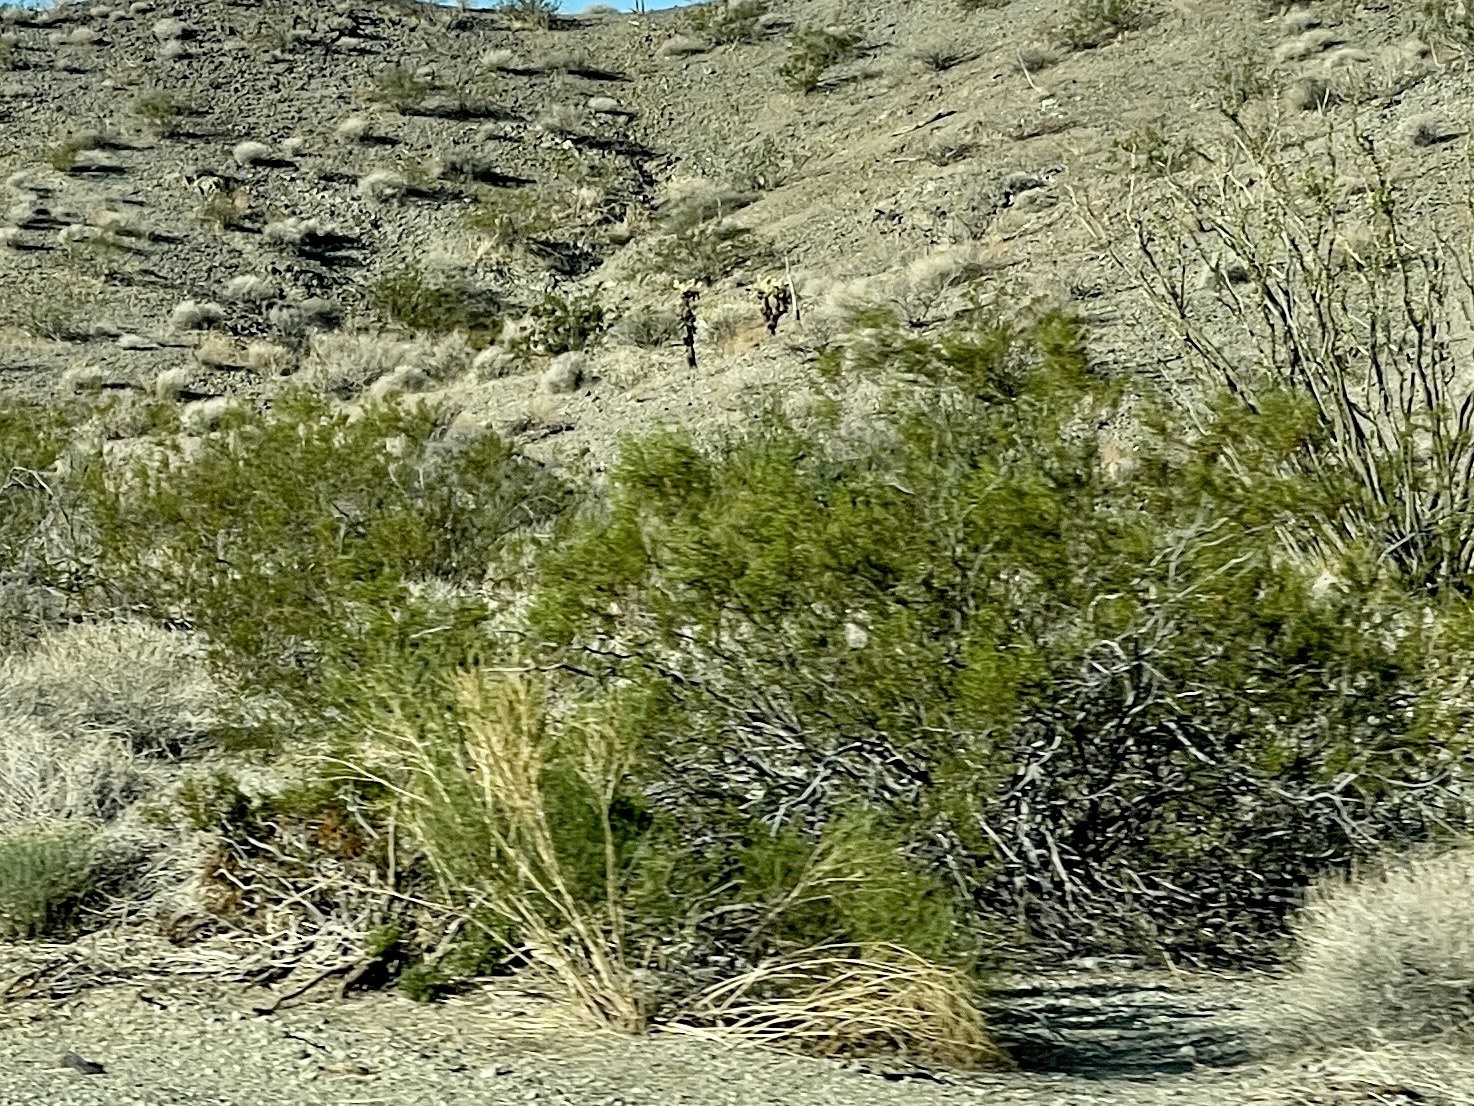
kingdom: Plantae
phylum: Tracheophyta
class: Magnoliopsida
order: Zygophyllales
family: Zygophyllaceae
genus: Larrea
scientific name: Larrea tridentata
